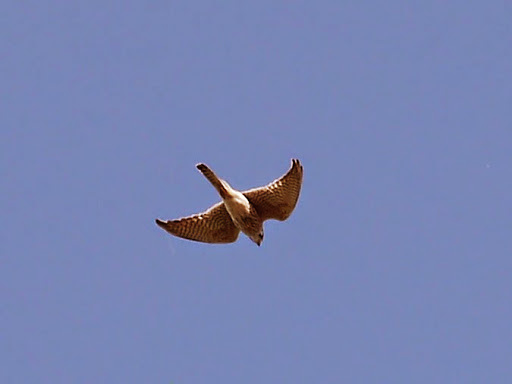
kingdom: Animalia
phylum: Chordata
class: Aves
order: Falconiformes
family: Falconidae
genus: Falco
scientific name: Falco sparverius
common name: American kestrel
